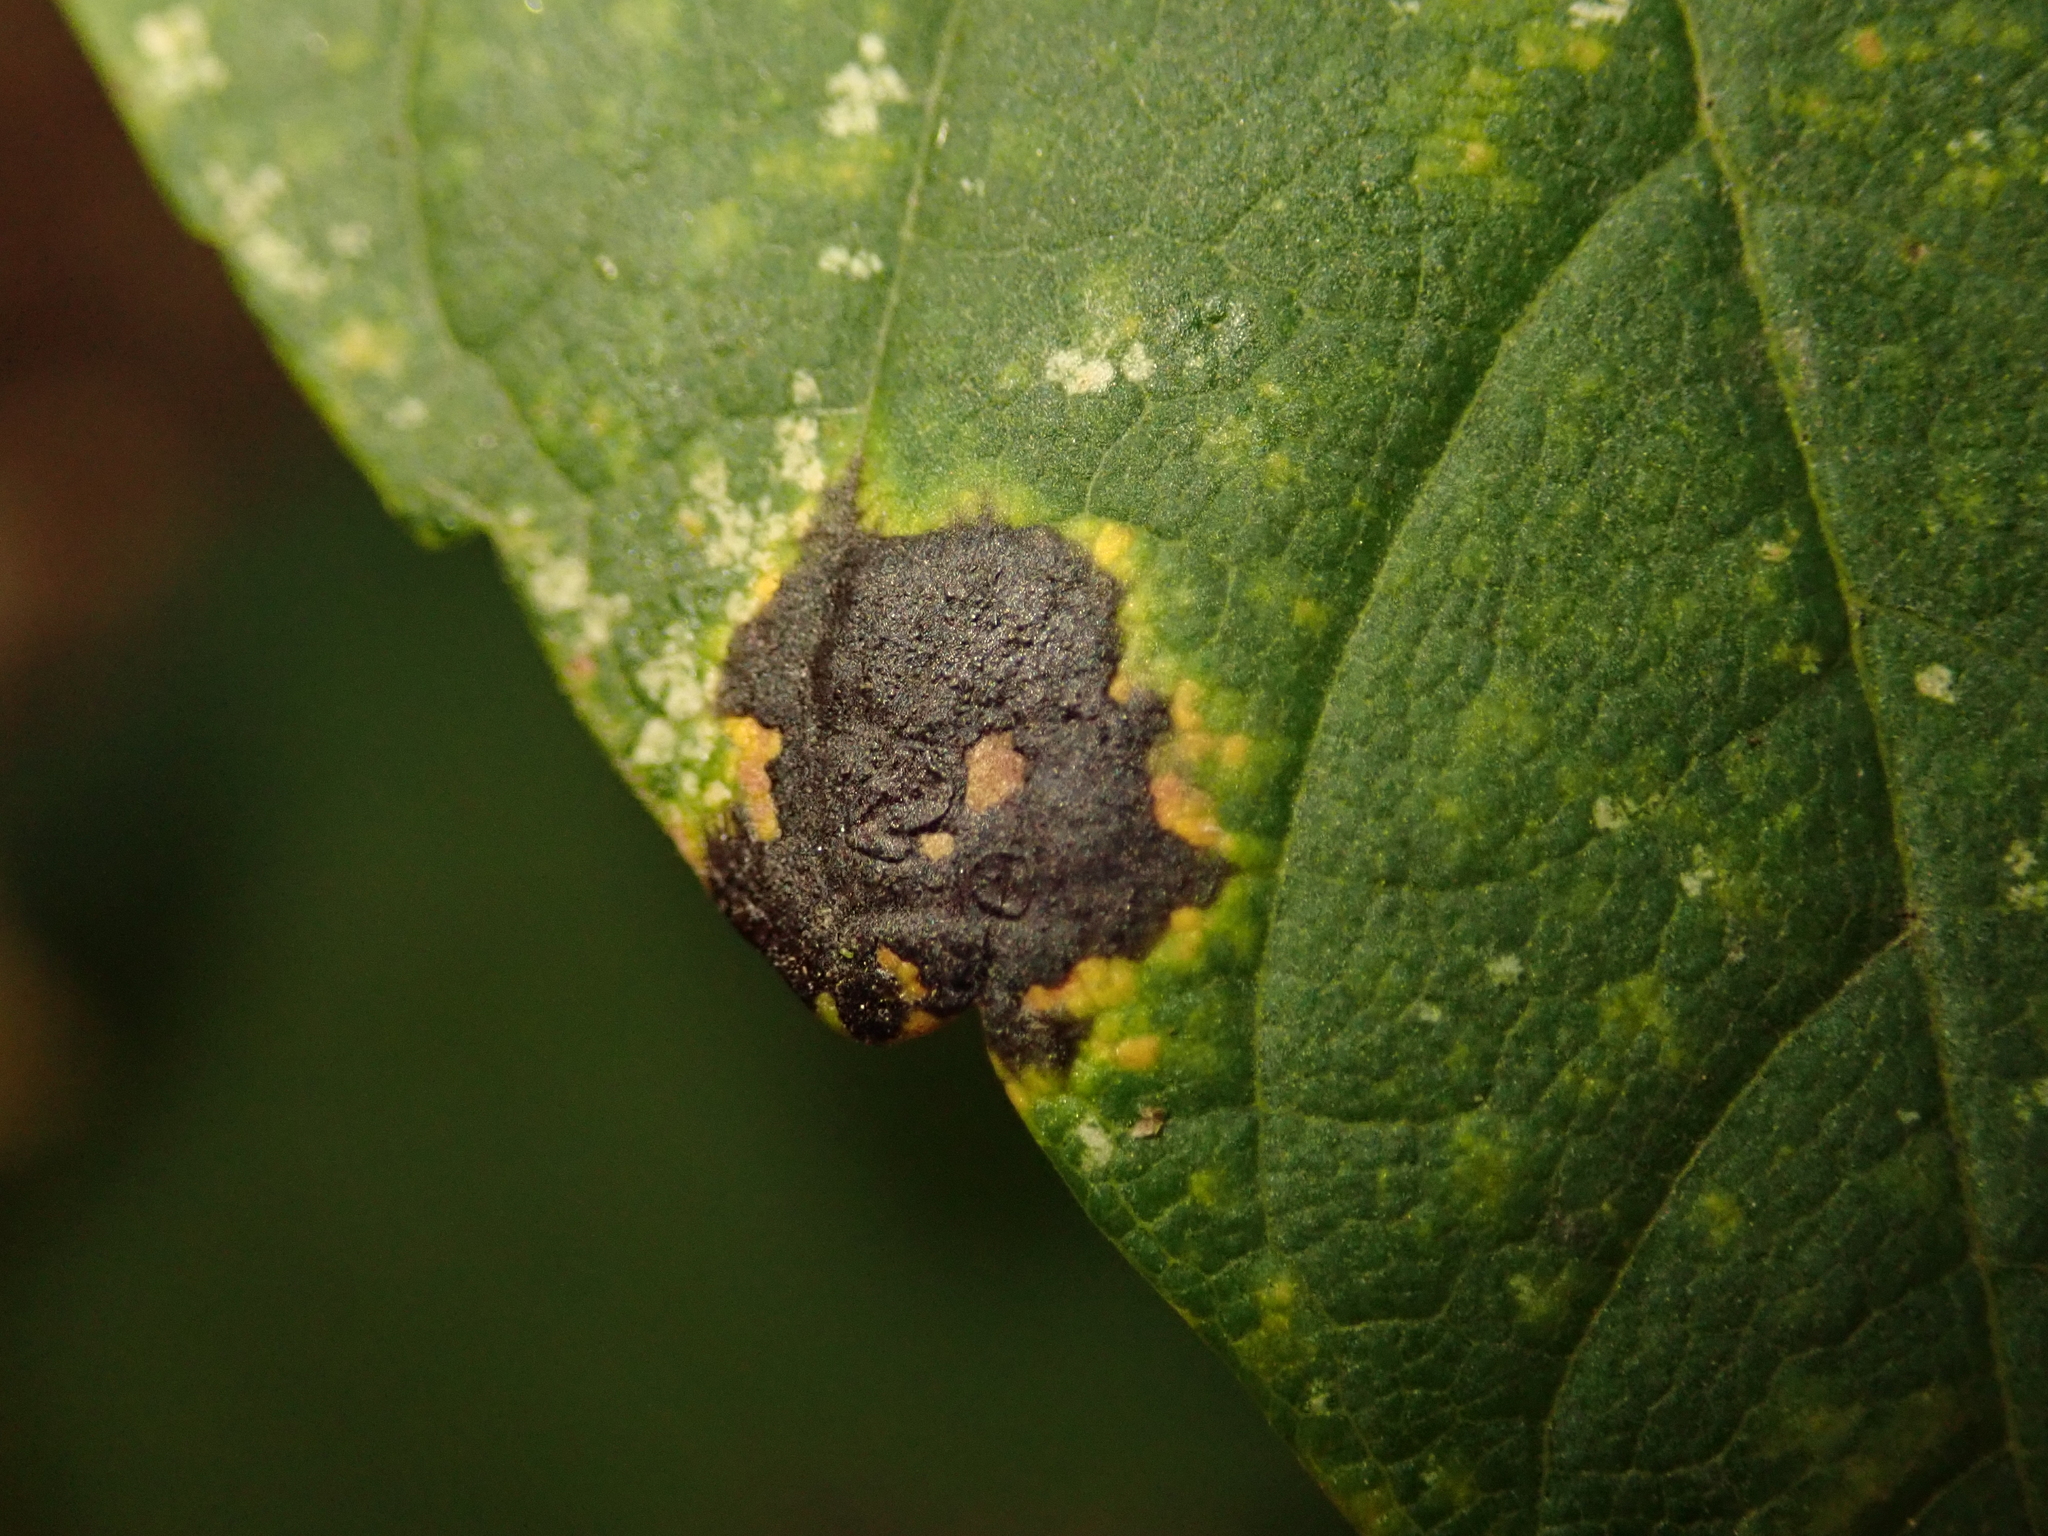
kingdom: Fungi
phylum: Ascomycota
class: Leotiomycetes
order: Rhytismatales
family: Rhytismataceae
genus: Rhytisma
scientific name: Rhytisma acerinum
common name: European tar spot
